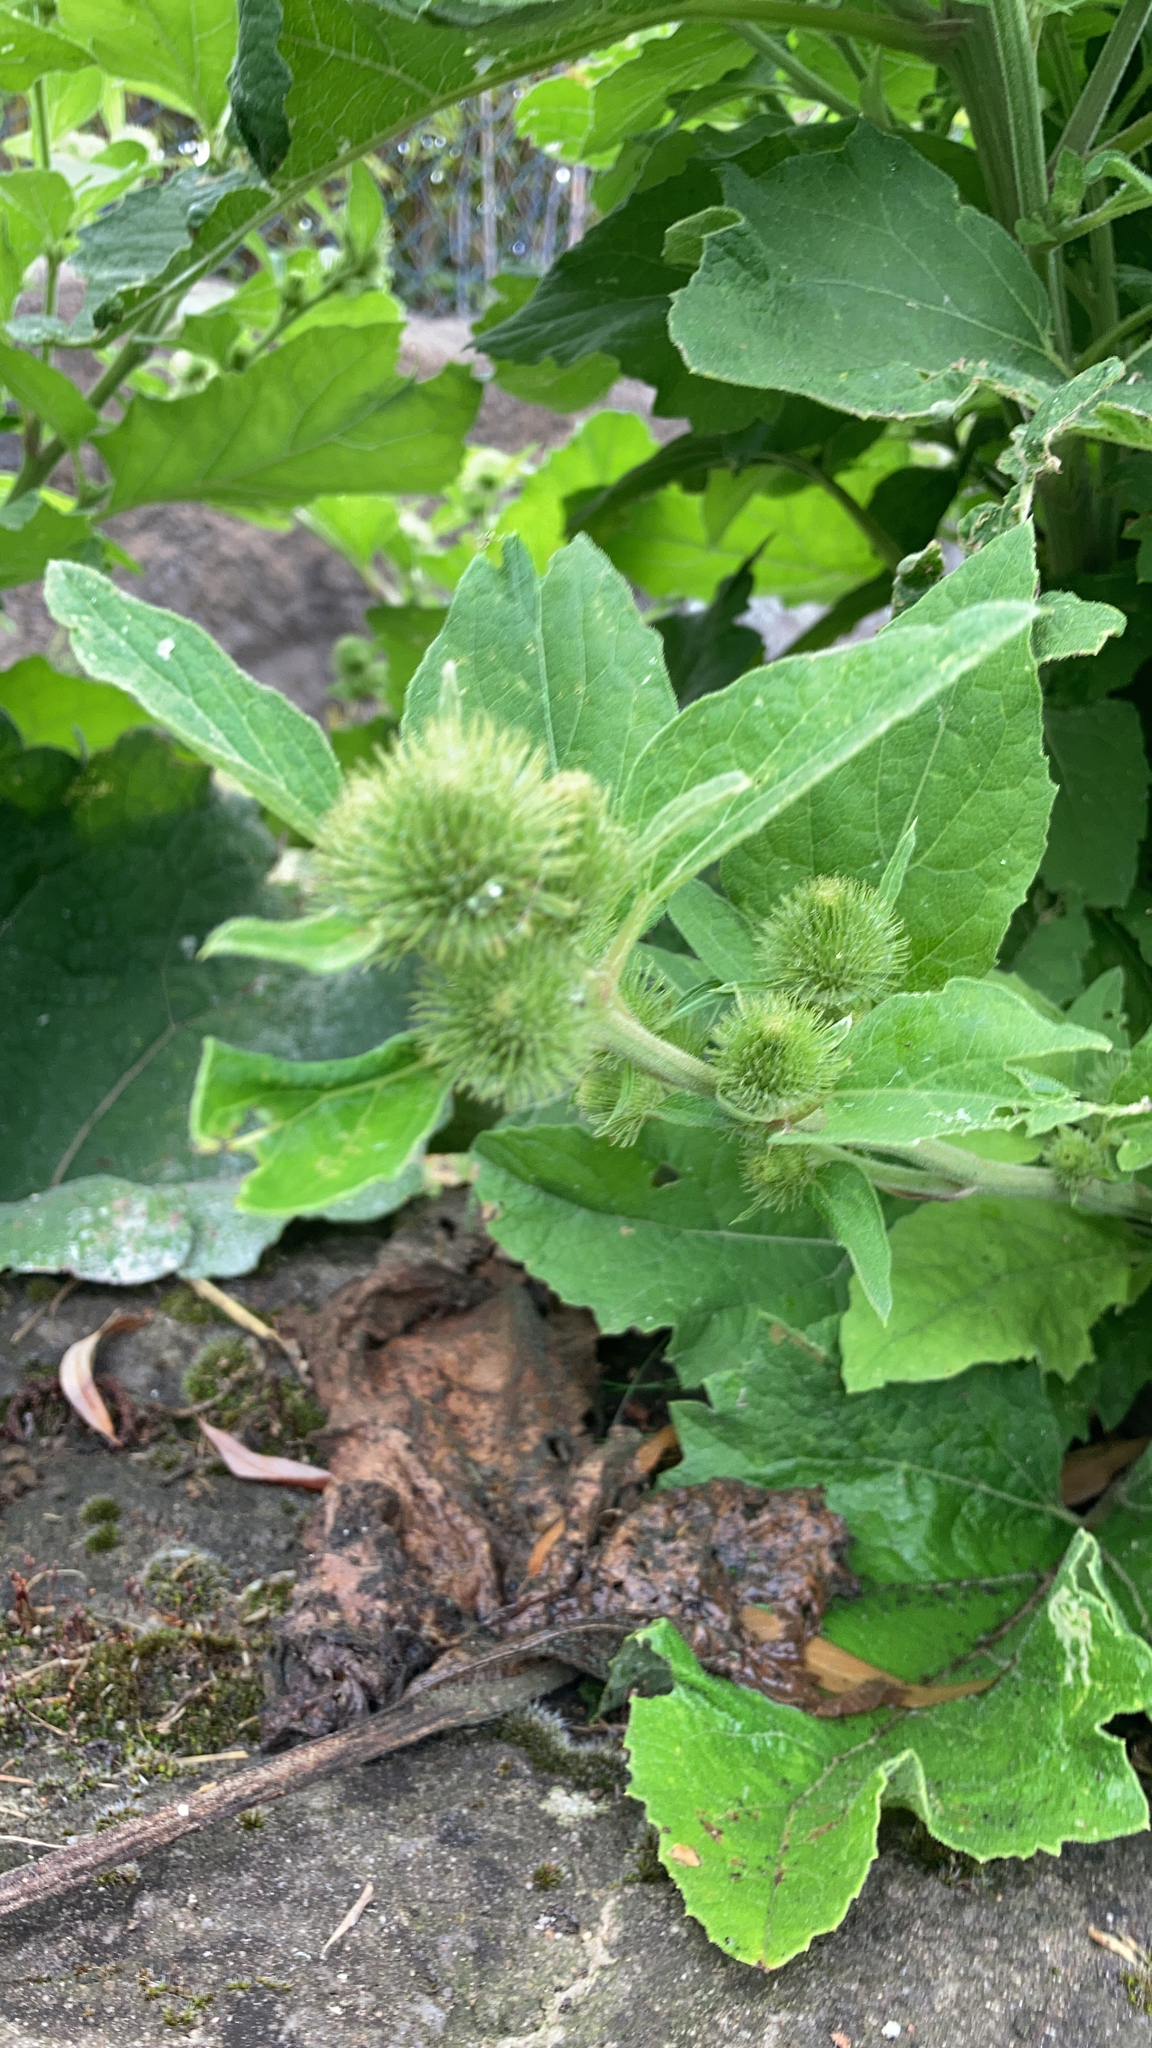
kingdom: Plantae
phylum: Tracheophyta
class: Magnoliopsida
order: Asterales
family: Asteraceae
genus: Arctium
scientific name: Arctium minus
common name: Lesser burdock
